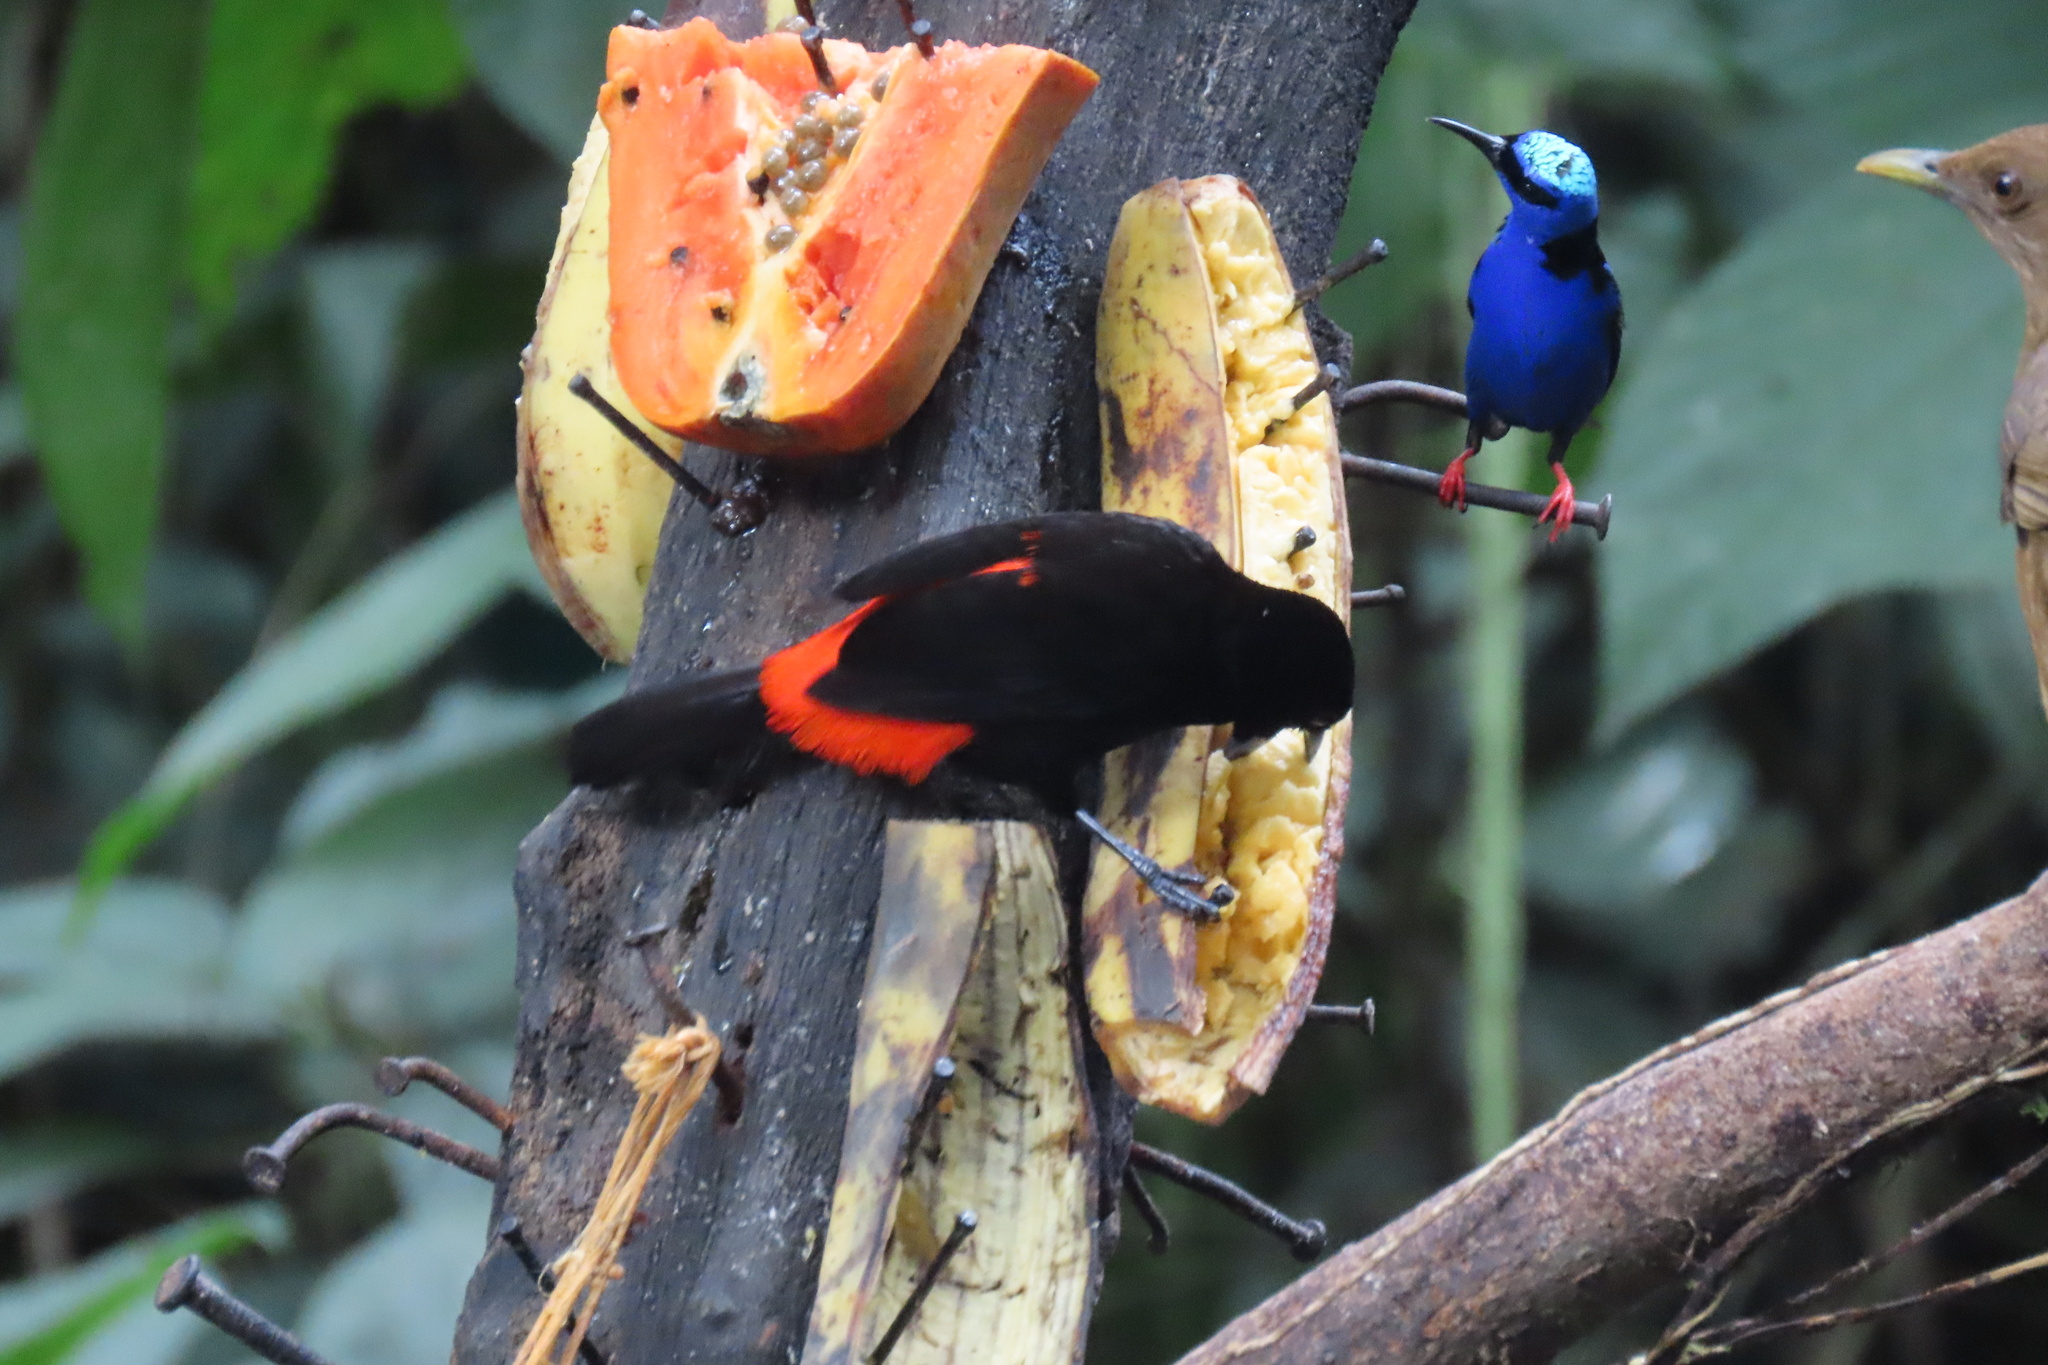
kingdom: Animalia
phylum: Chordata
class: Aves
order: Passeriformes
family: Thraupidae
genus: Ramphocelus
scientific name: Ramphocelus passerinii
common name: Passerini's tanager
